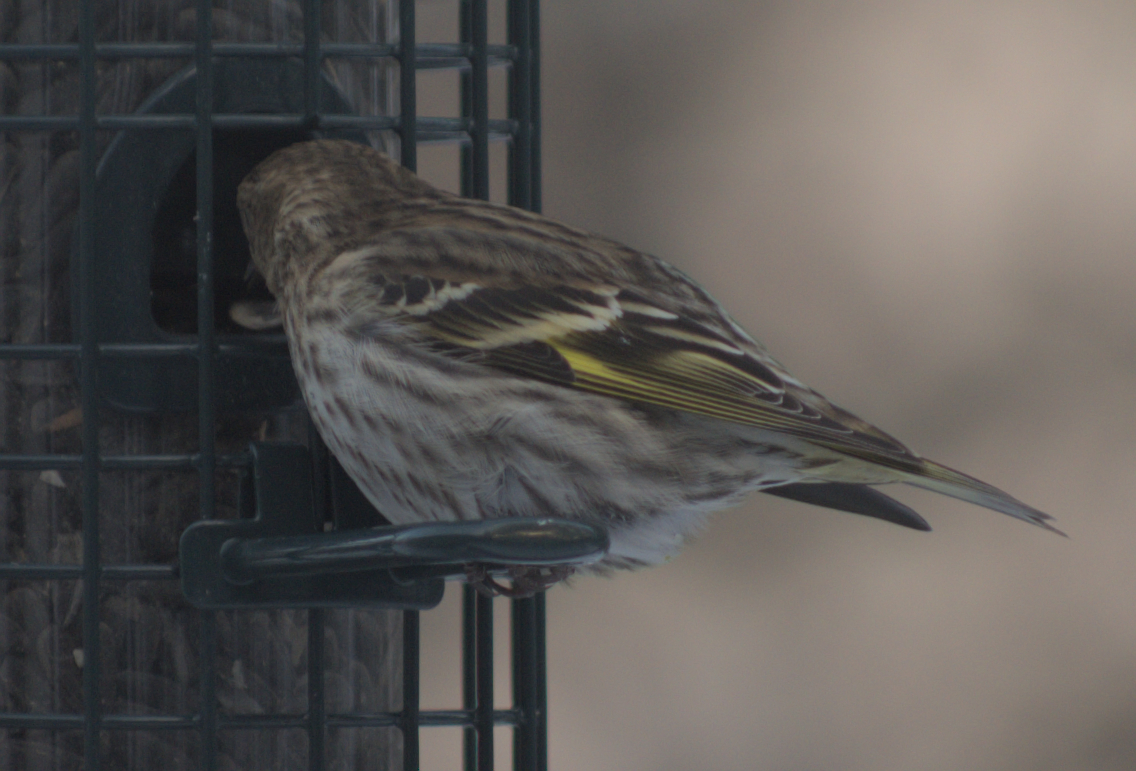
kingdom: Animalia
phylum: Chordata
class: Aves
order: Passeriformes
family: Fringillidae
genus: Spinus
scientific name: Spinus pinus
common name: Pine siskin
